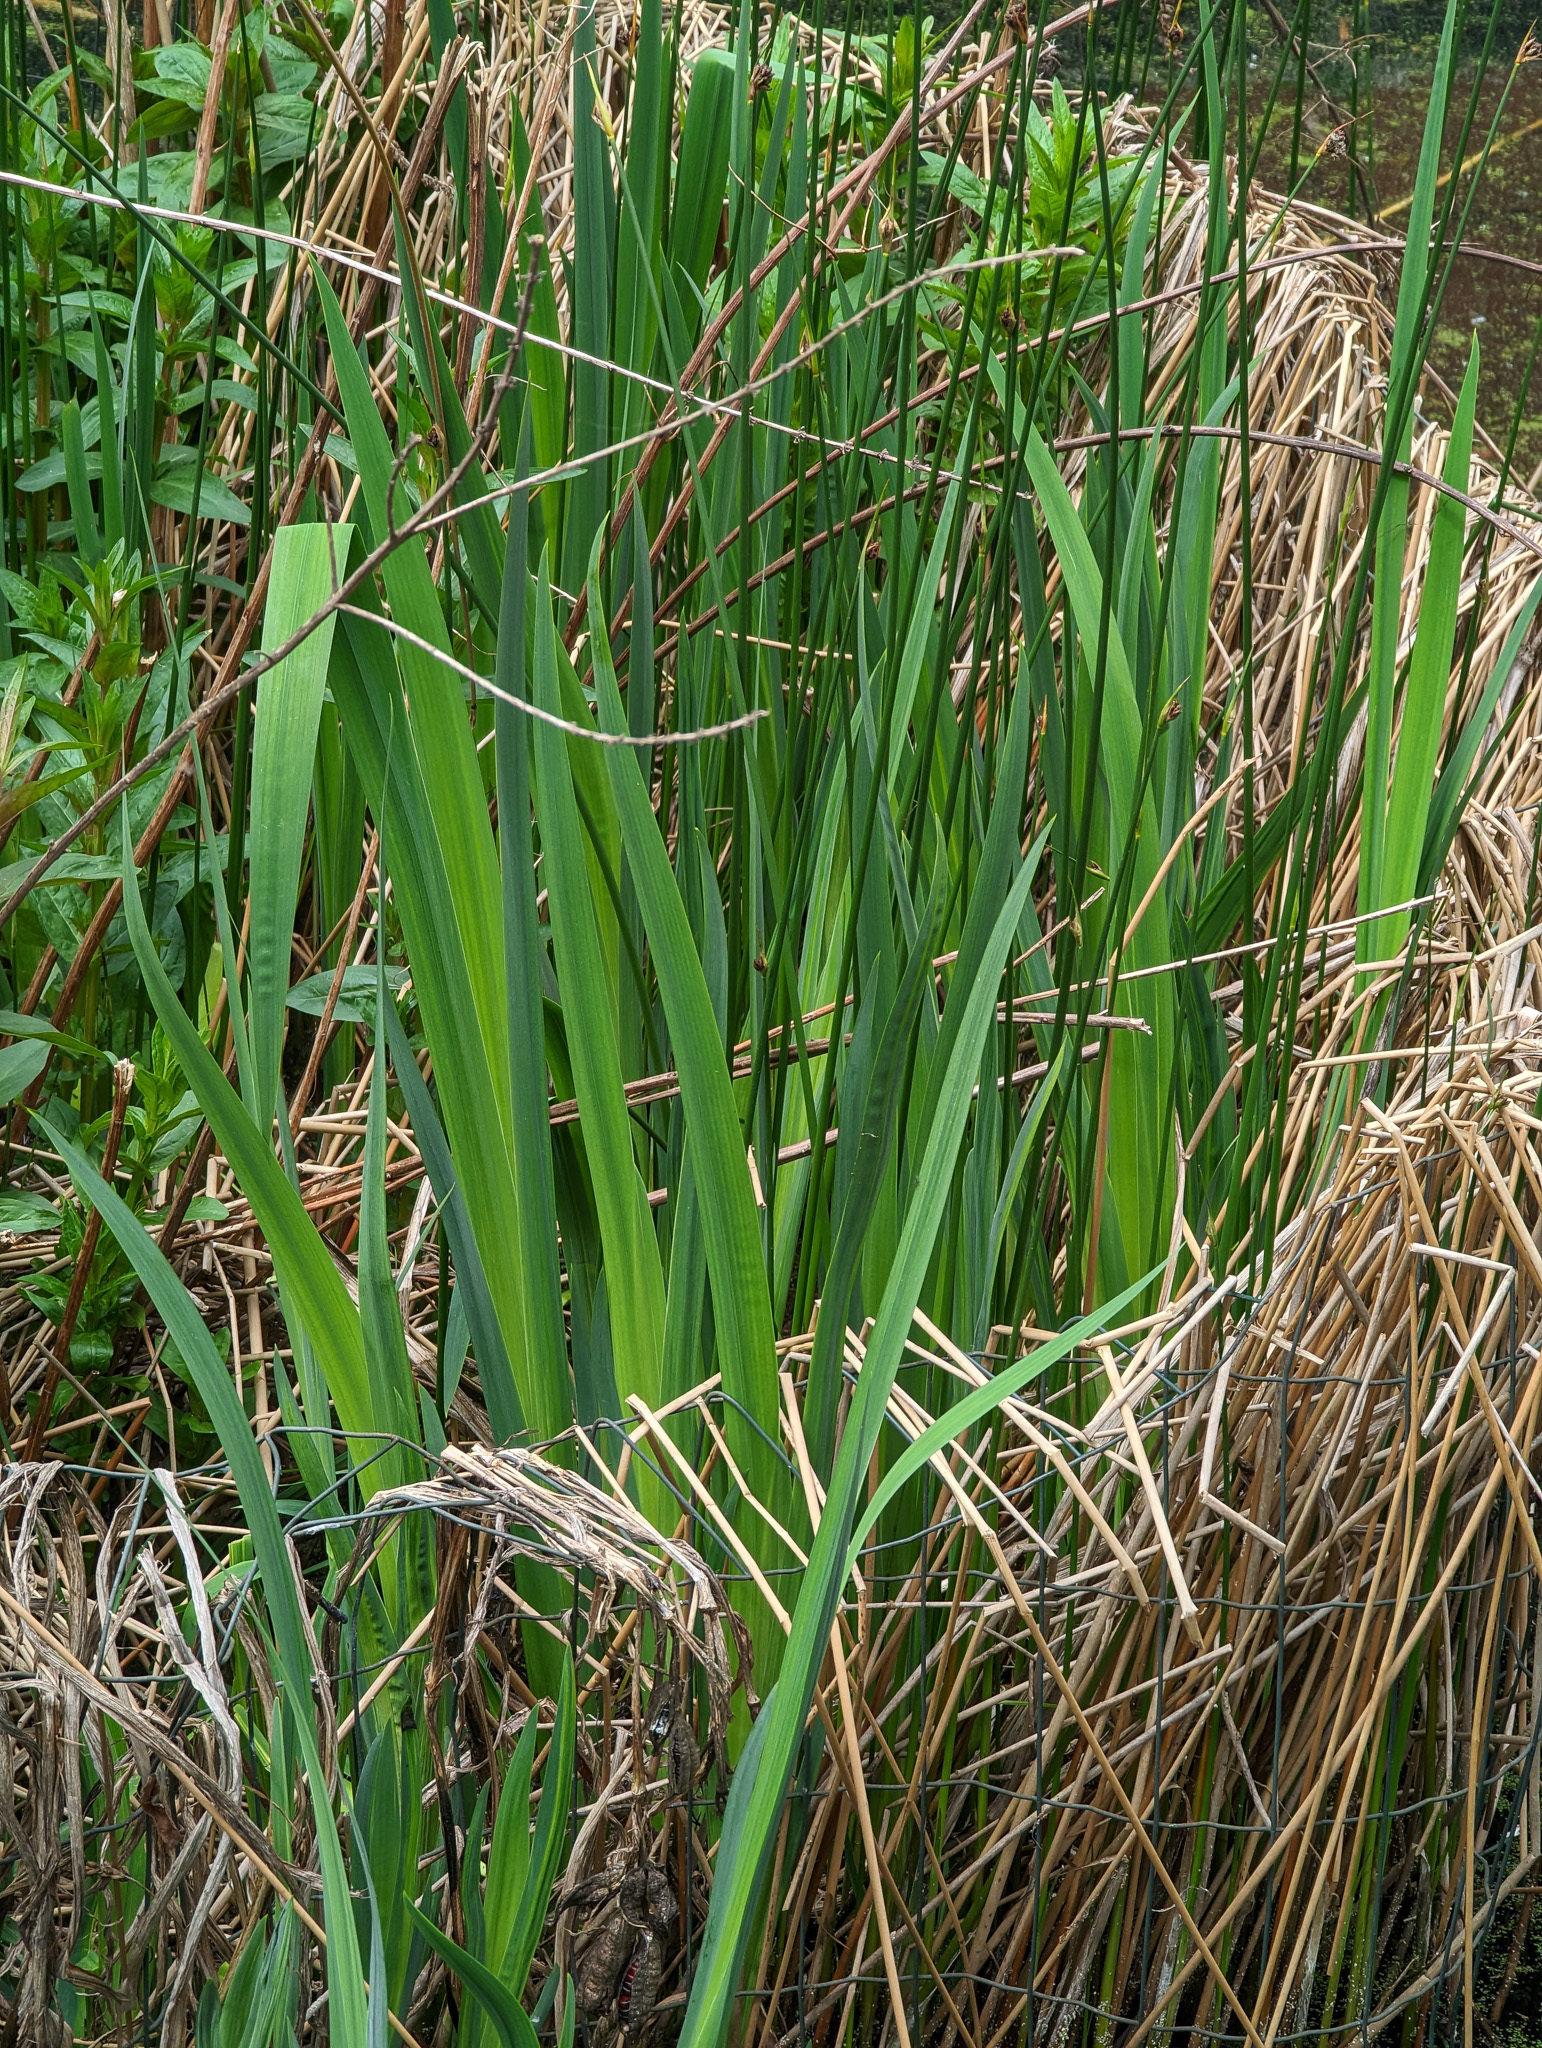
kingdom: Plantae
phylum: Tracheophyta
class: Liliopsida
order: Asparagales
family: Iridaceae
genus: Iris
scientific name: Iris pseudacorus
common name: Yellow flag
